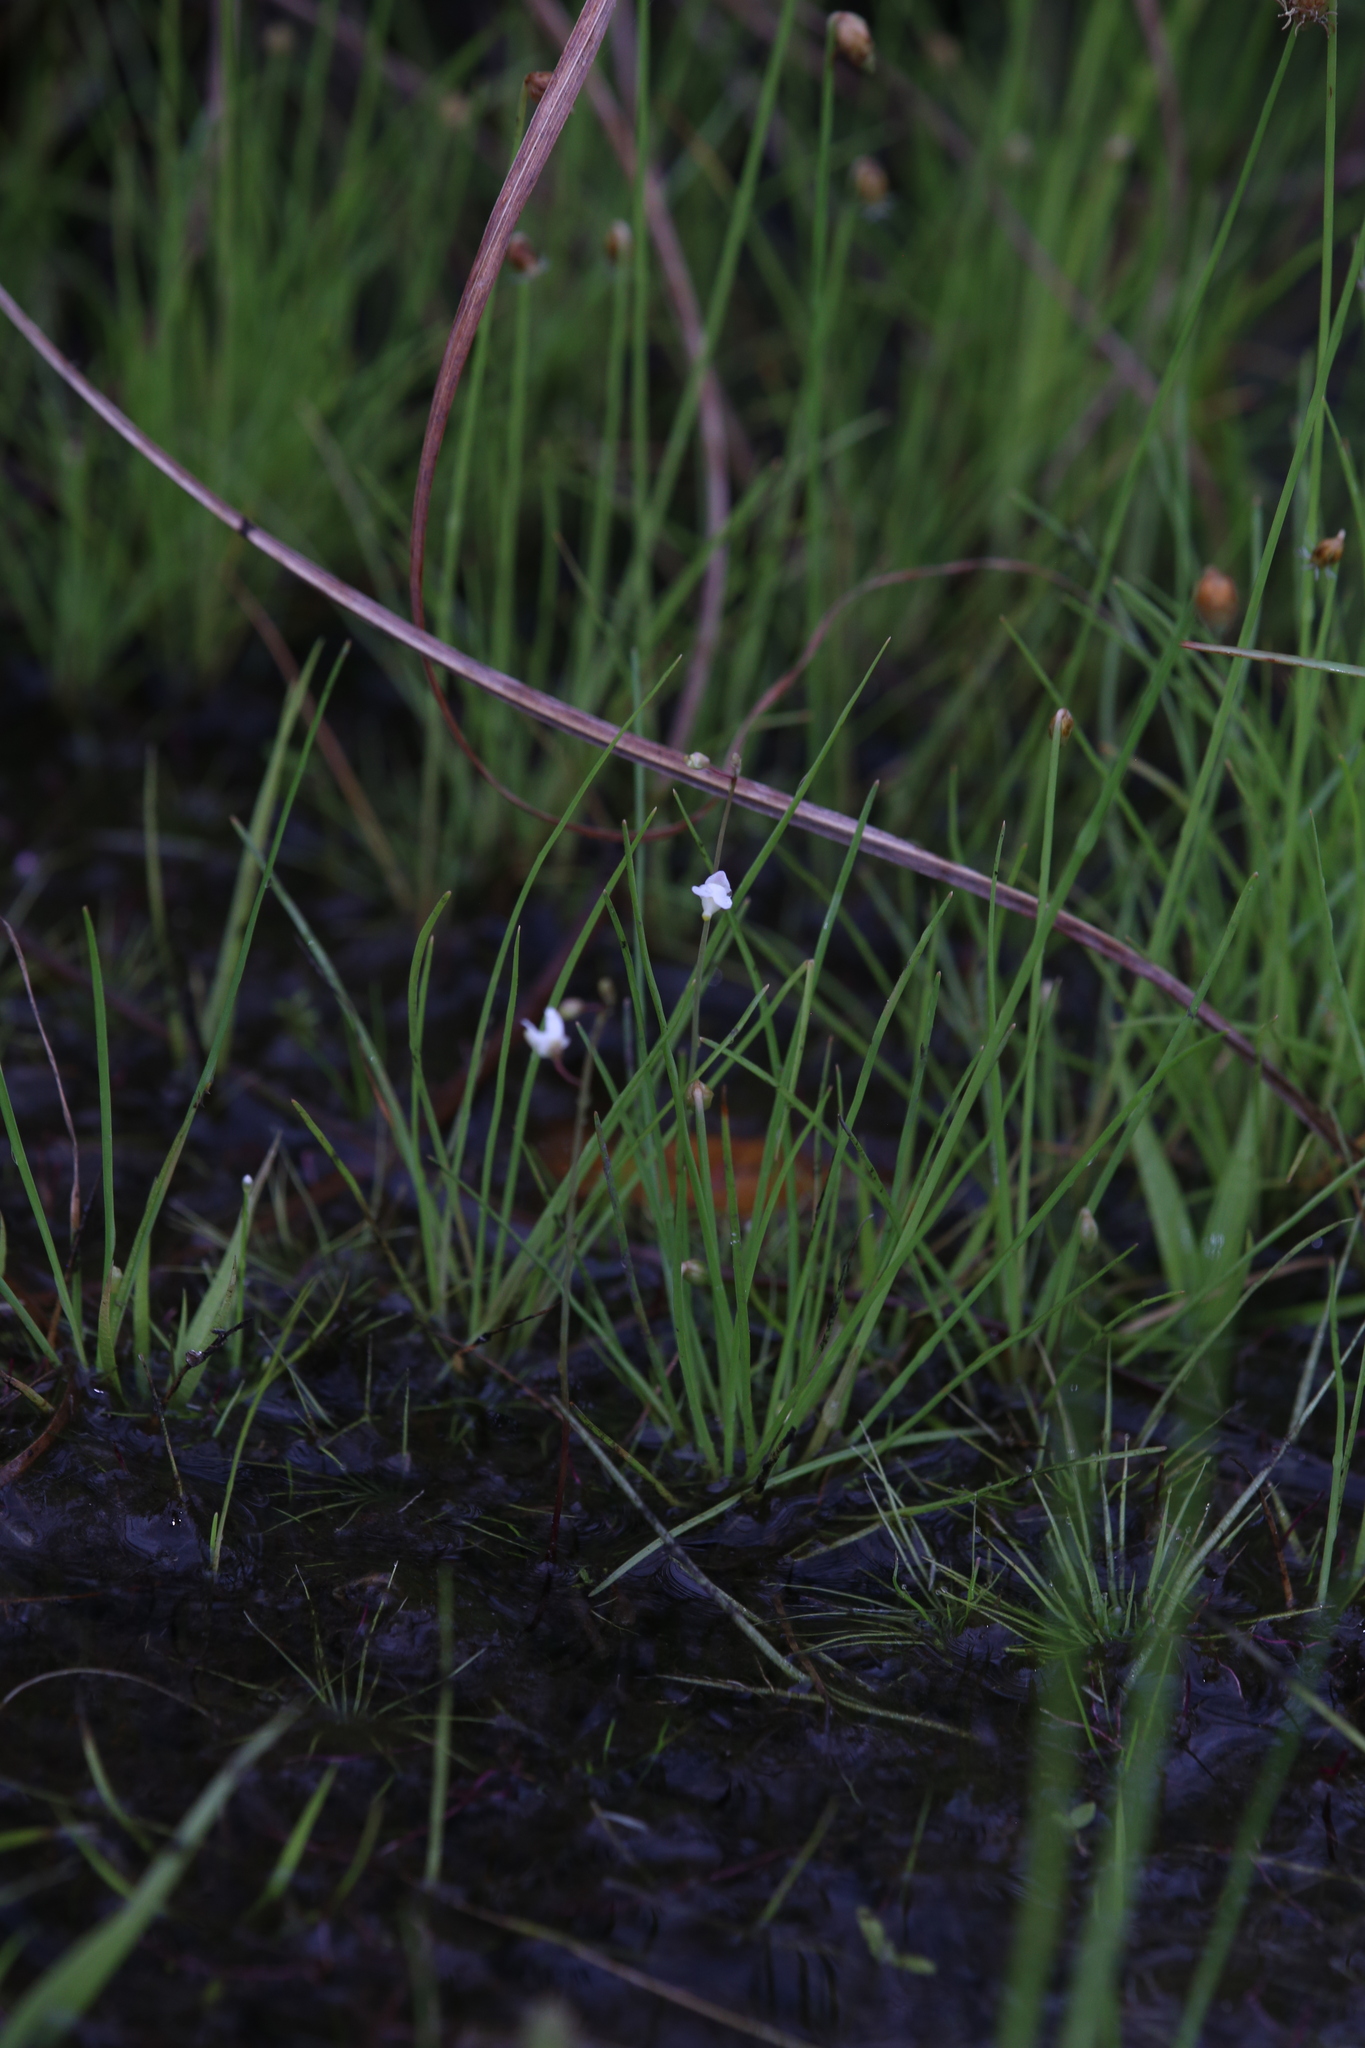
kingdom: Plantae
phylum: Tracheophyta
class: Magnoliopsida
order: Lamiales
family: Lentibulariaceae
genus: Utricularia
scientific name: Utricularia limosa
